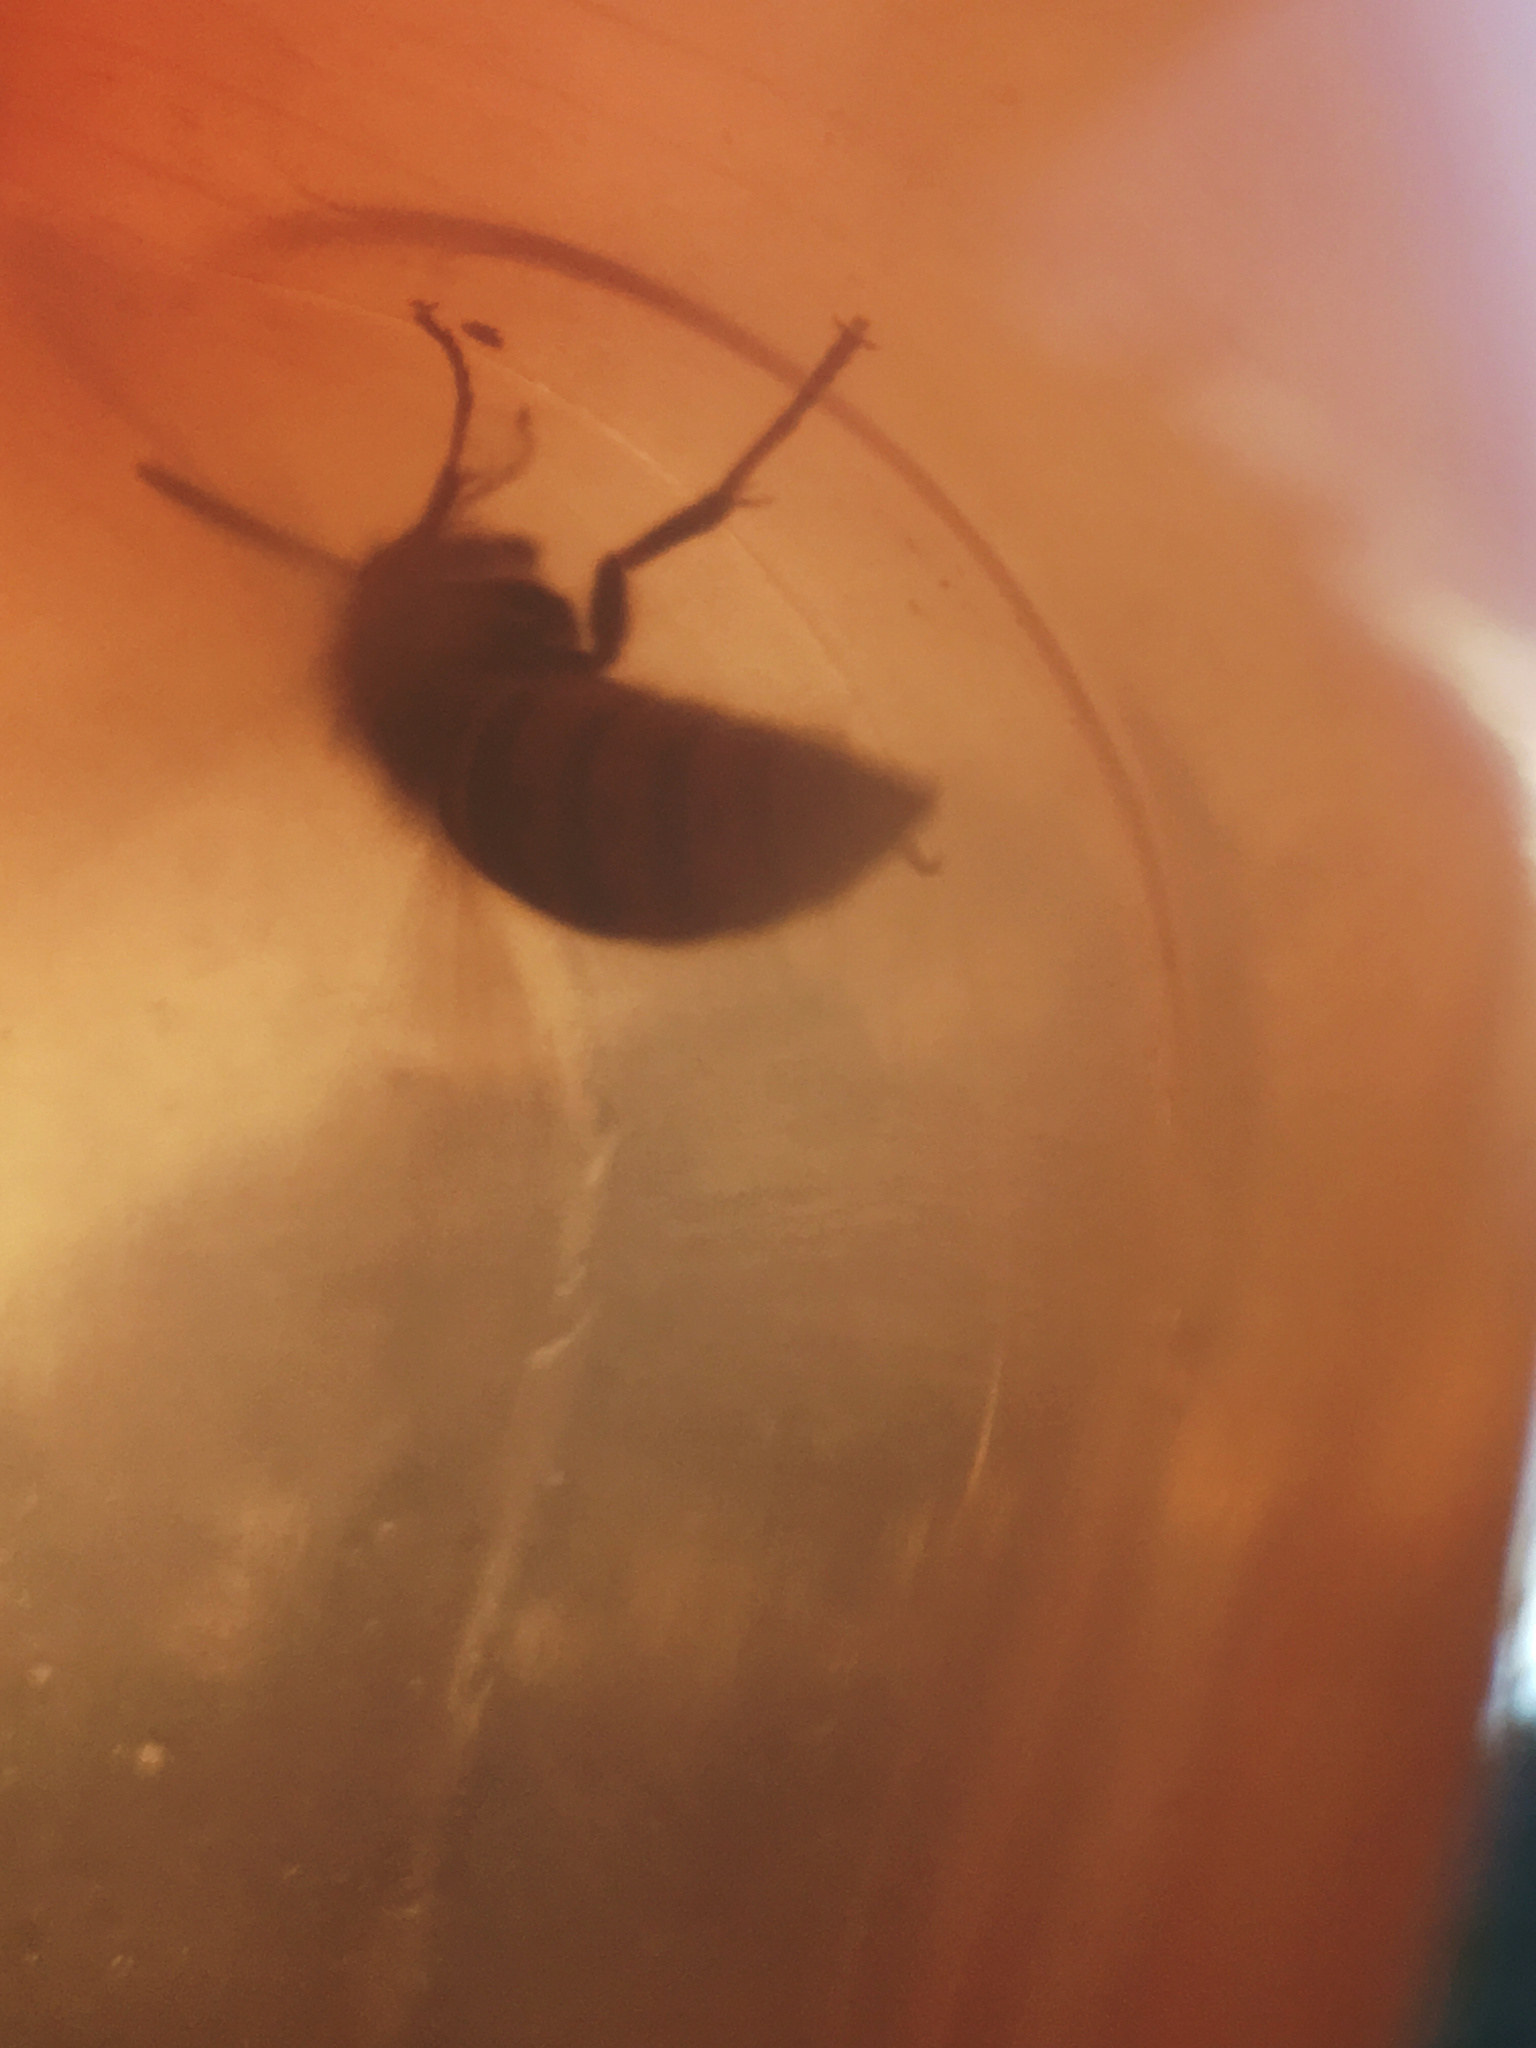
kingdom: Animalia
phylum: Arthropoda
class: Insecta
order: Hymenoptera
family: Vespidae
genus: Vespula
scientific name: Vespula
